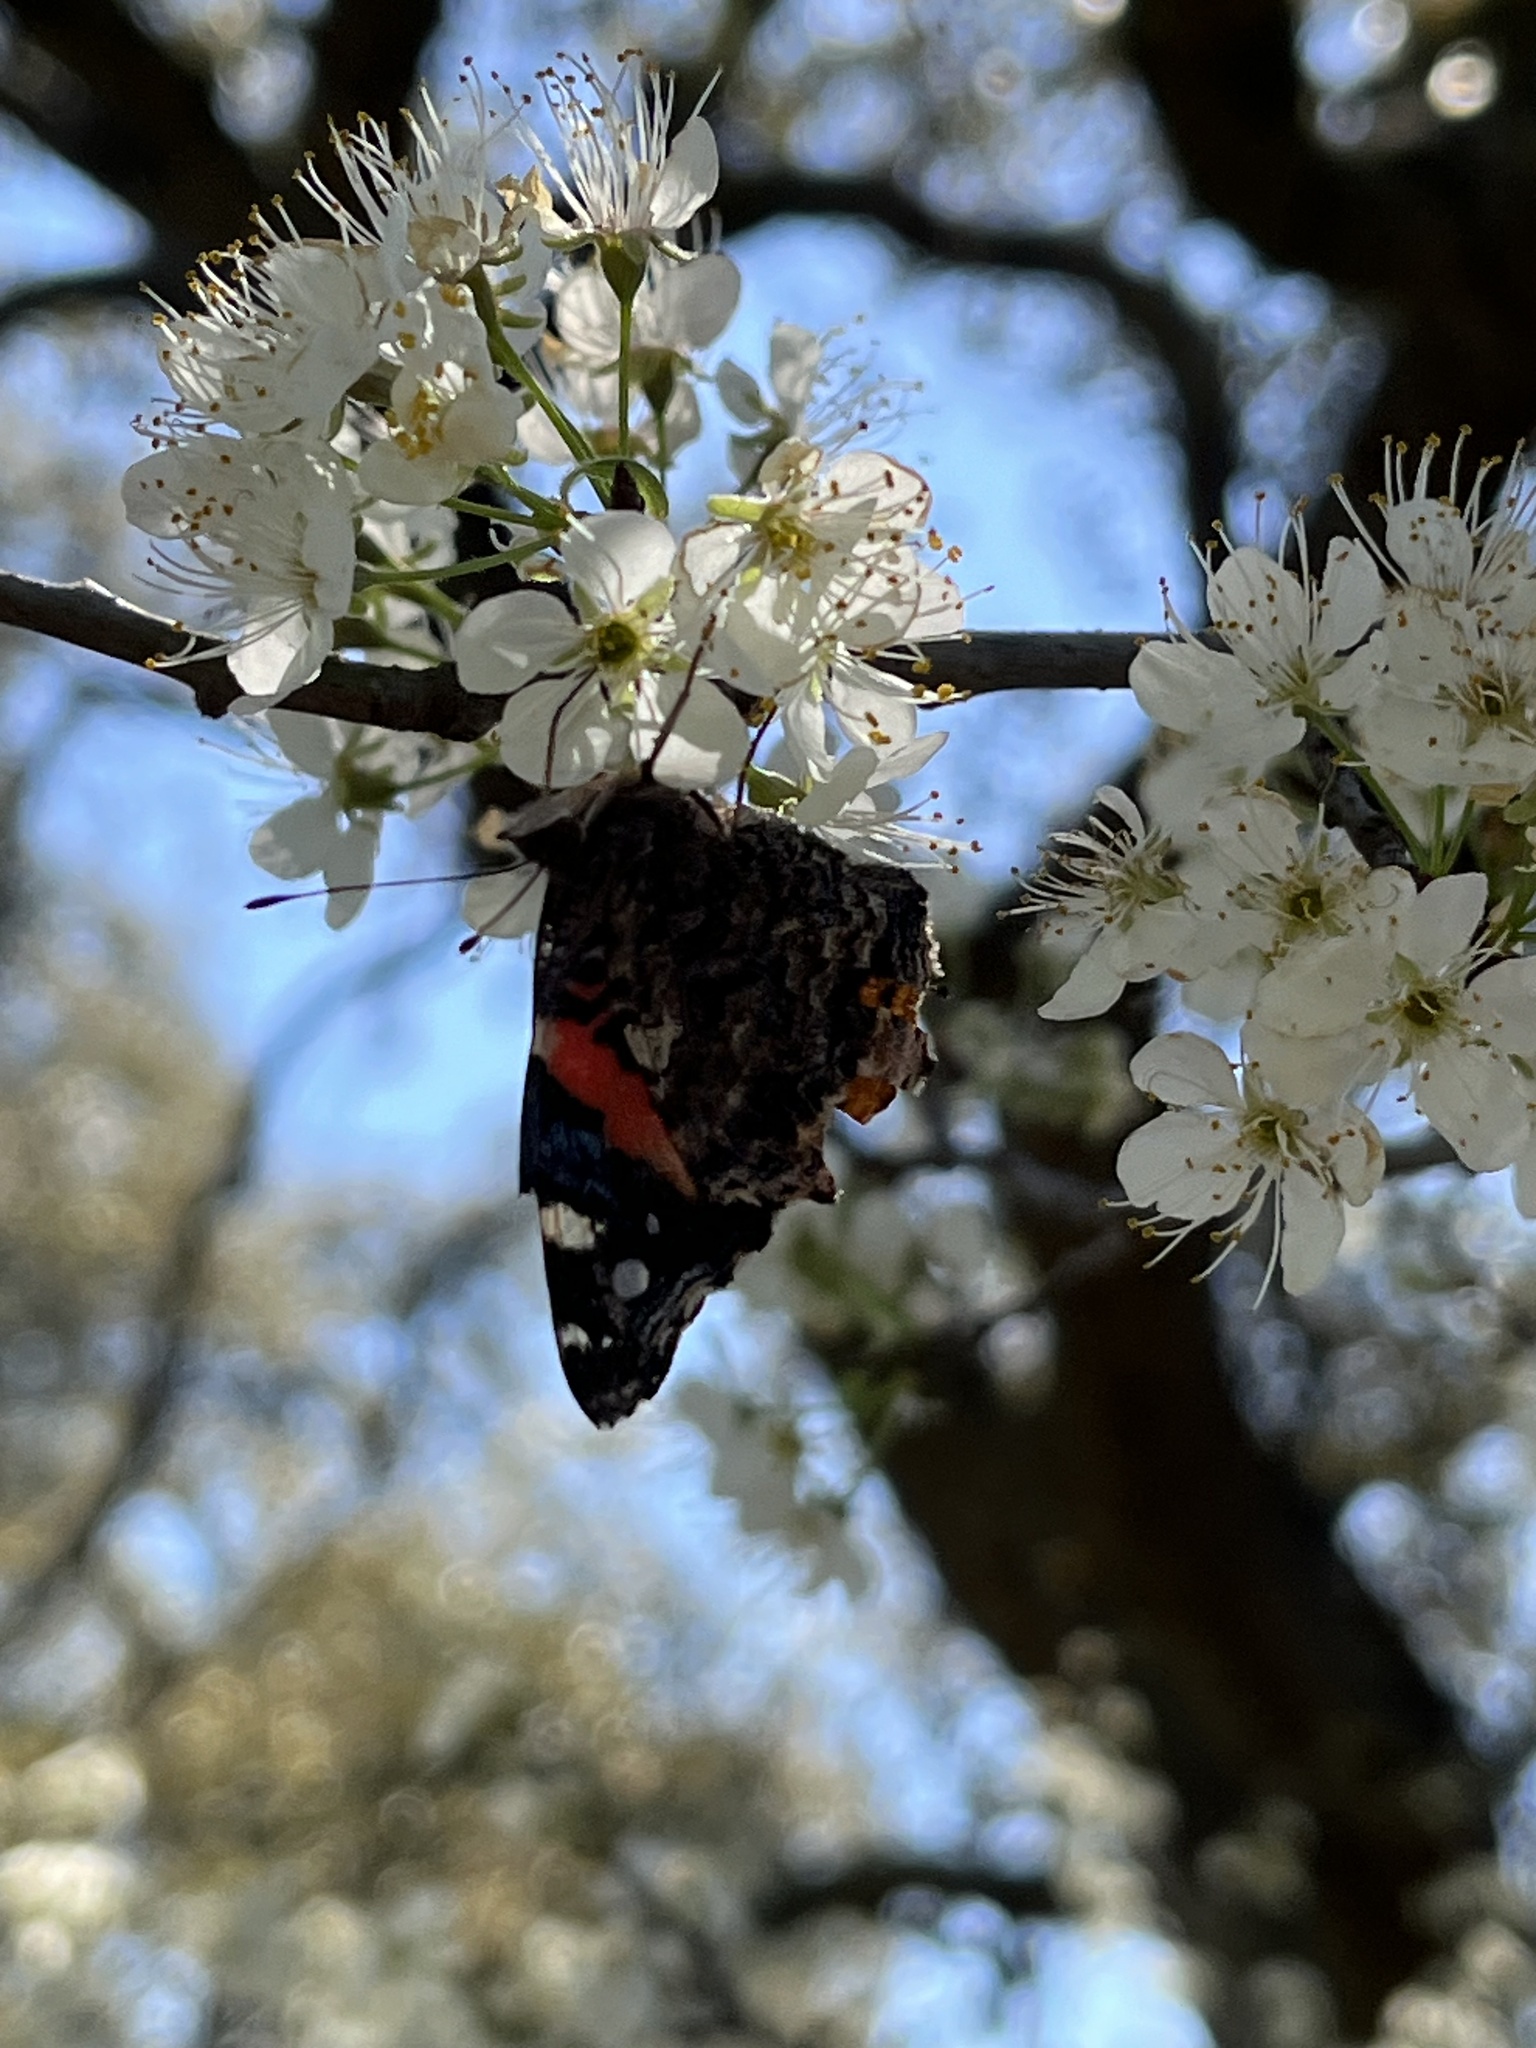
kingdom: Animalia
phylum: Arthropoda
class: Insecta
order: Lepidoptera
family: Nymphalidae
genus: Vanessa
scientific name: Vanessa atalanta
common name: Red admiral
